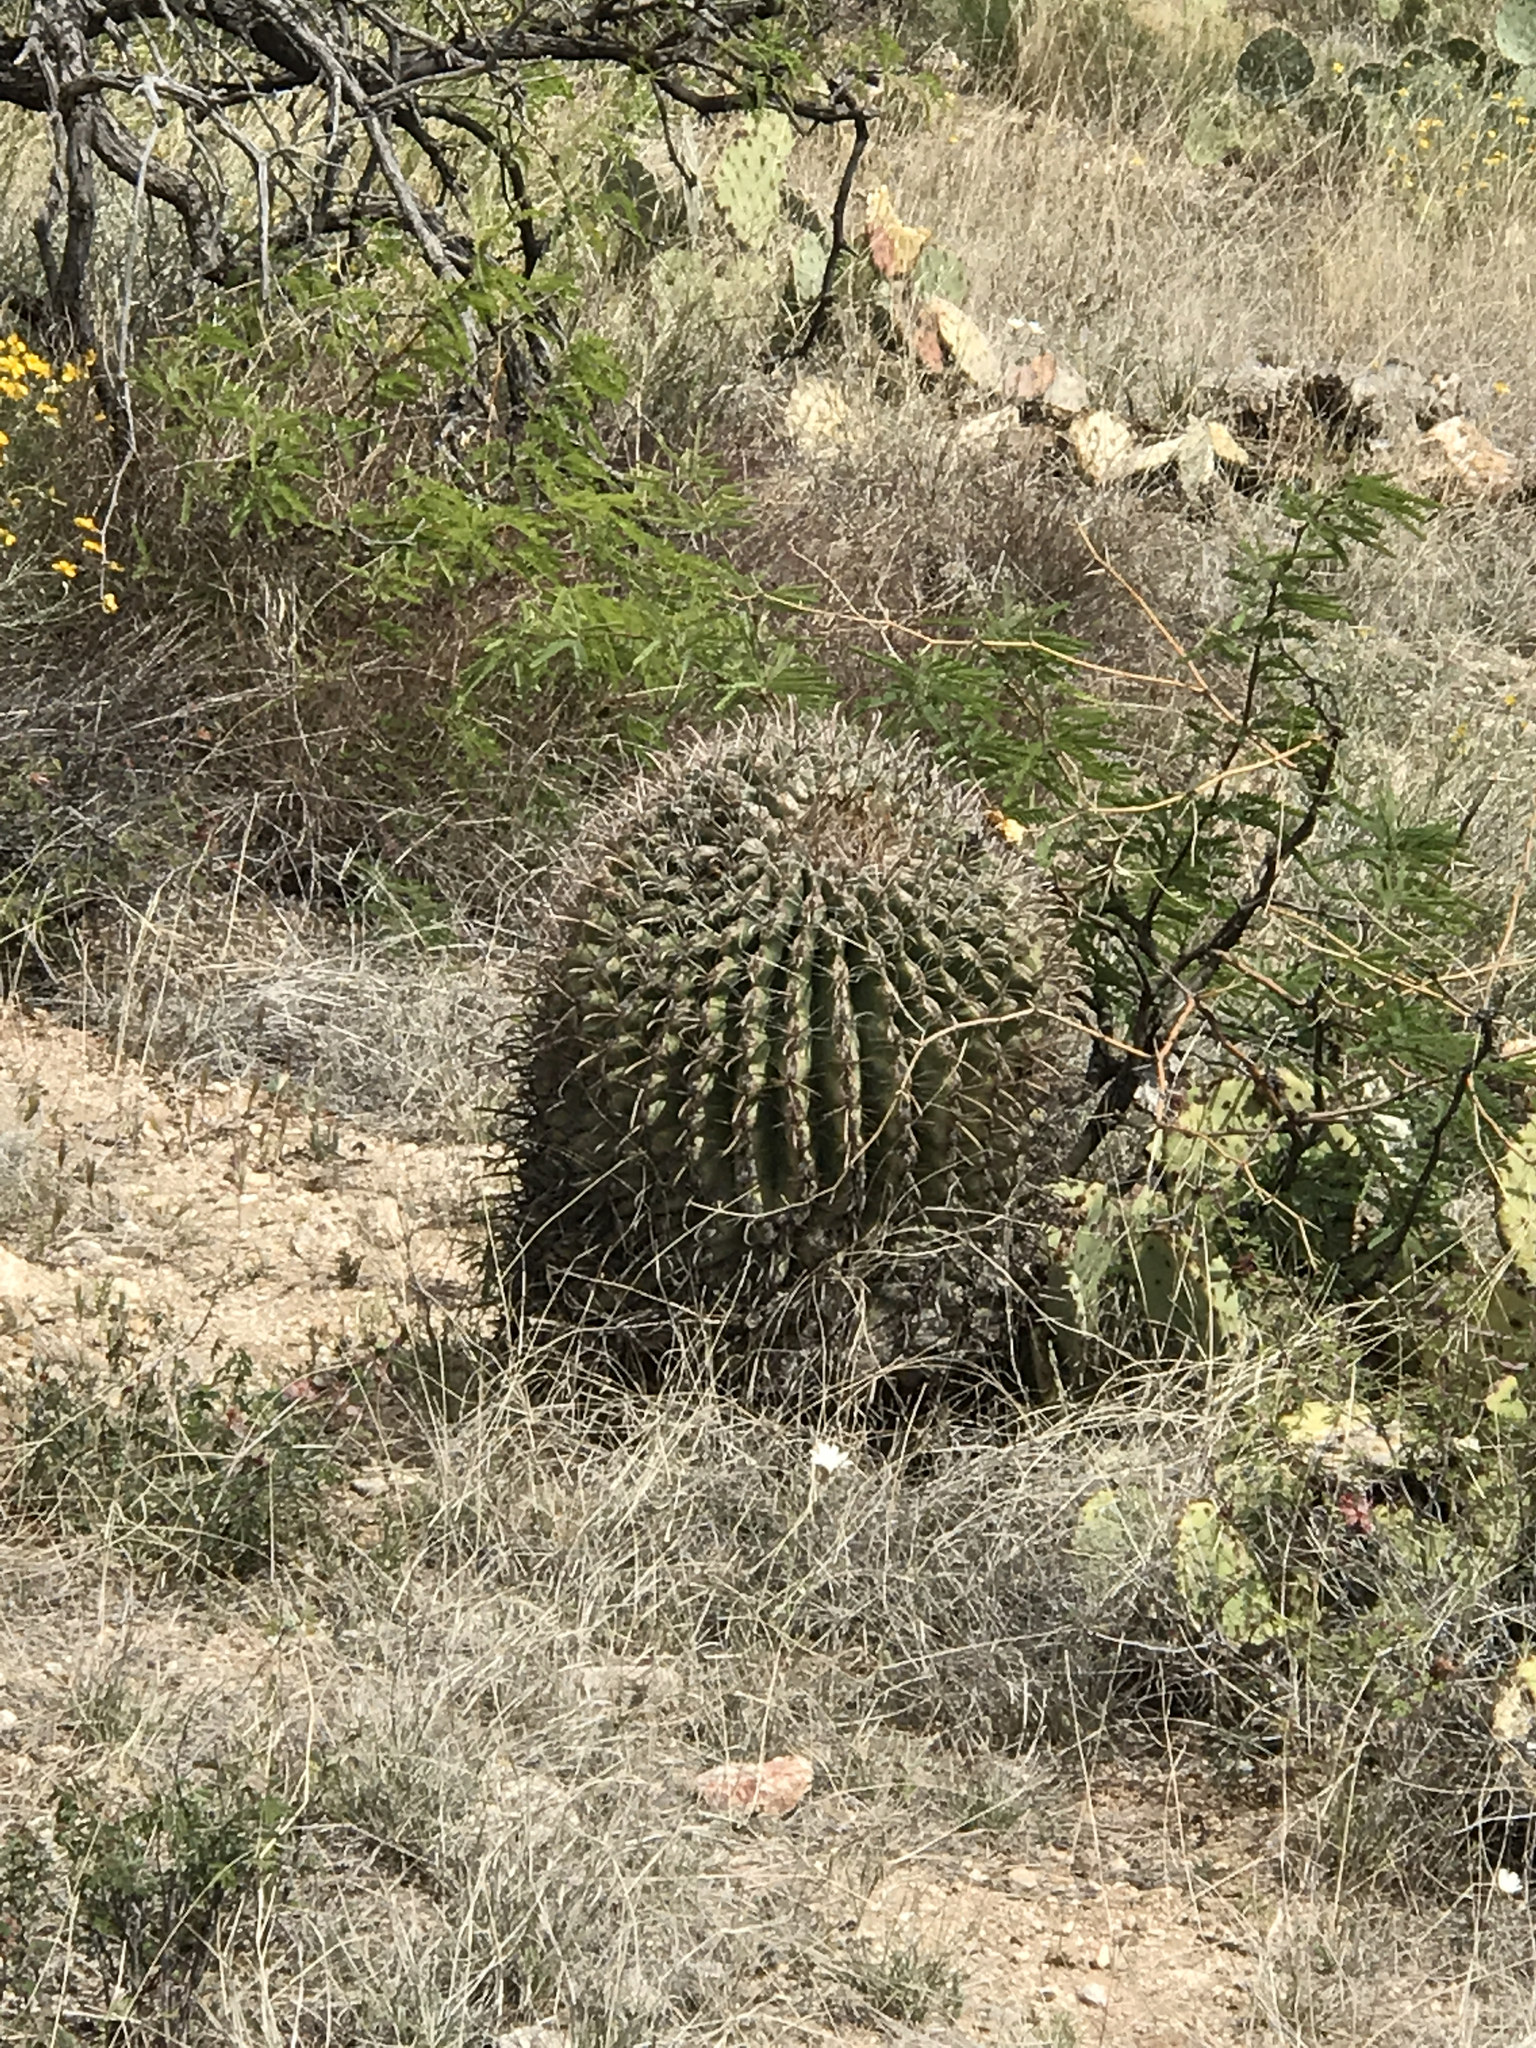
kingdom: Plantae
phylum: Tracheophyta
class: Magnoliopsida
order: Caryophyllales
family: Cactaceae
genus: Ferocactus
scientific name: Ferocactus wislizeni
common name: Candy barrel cactus
